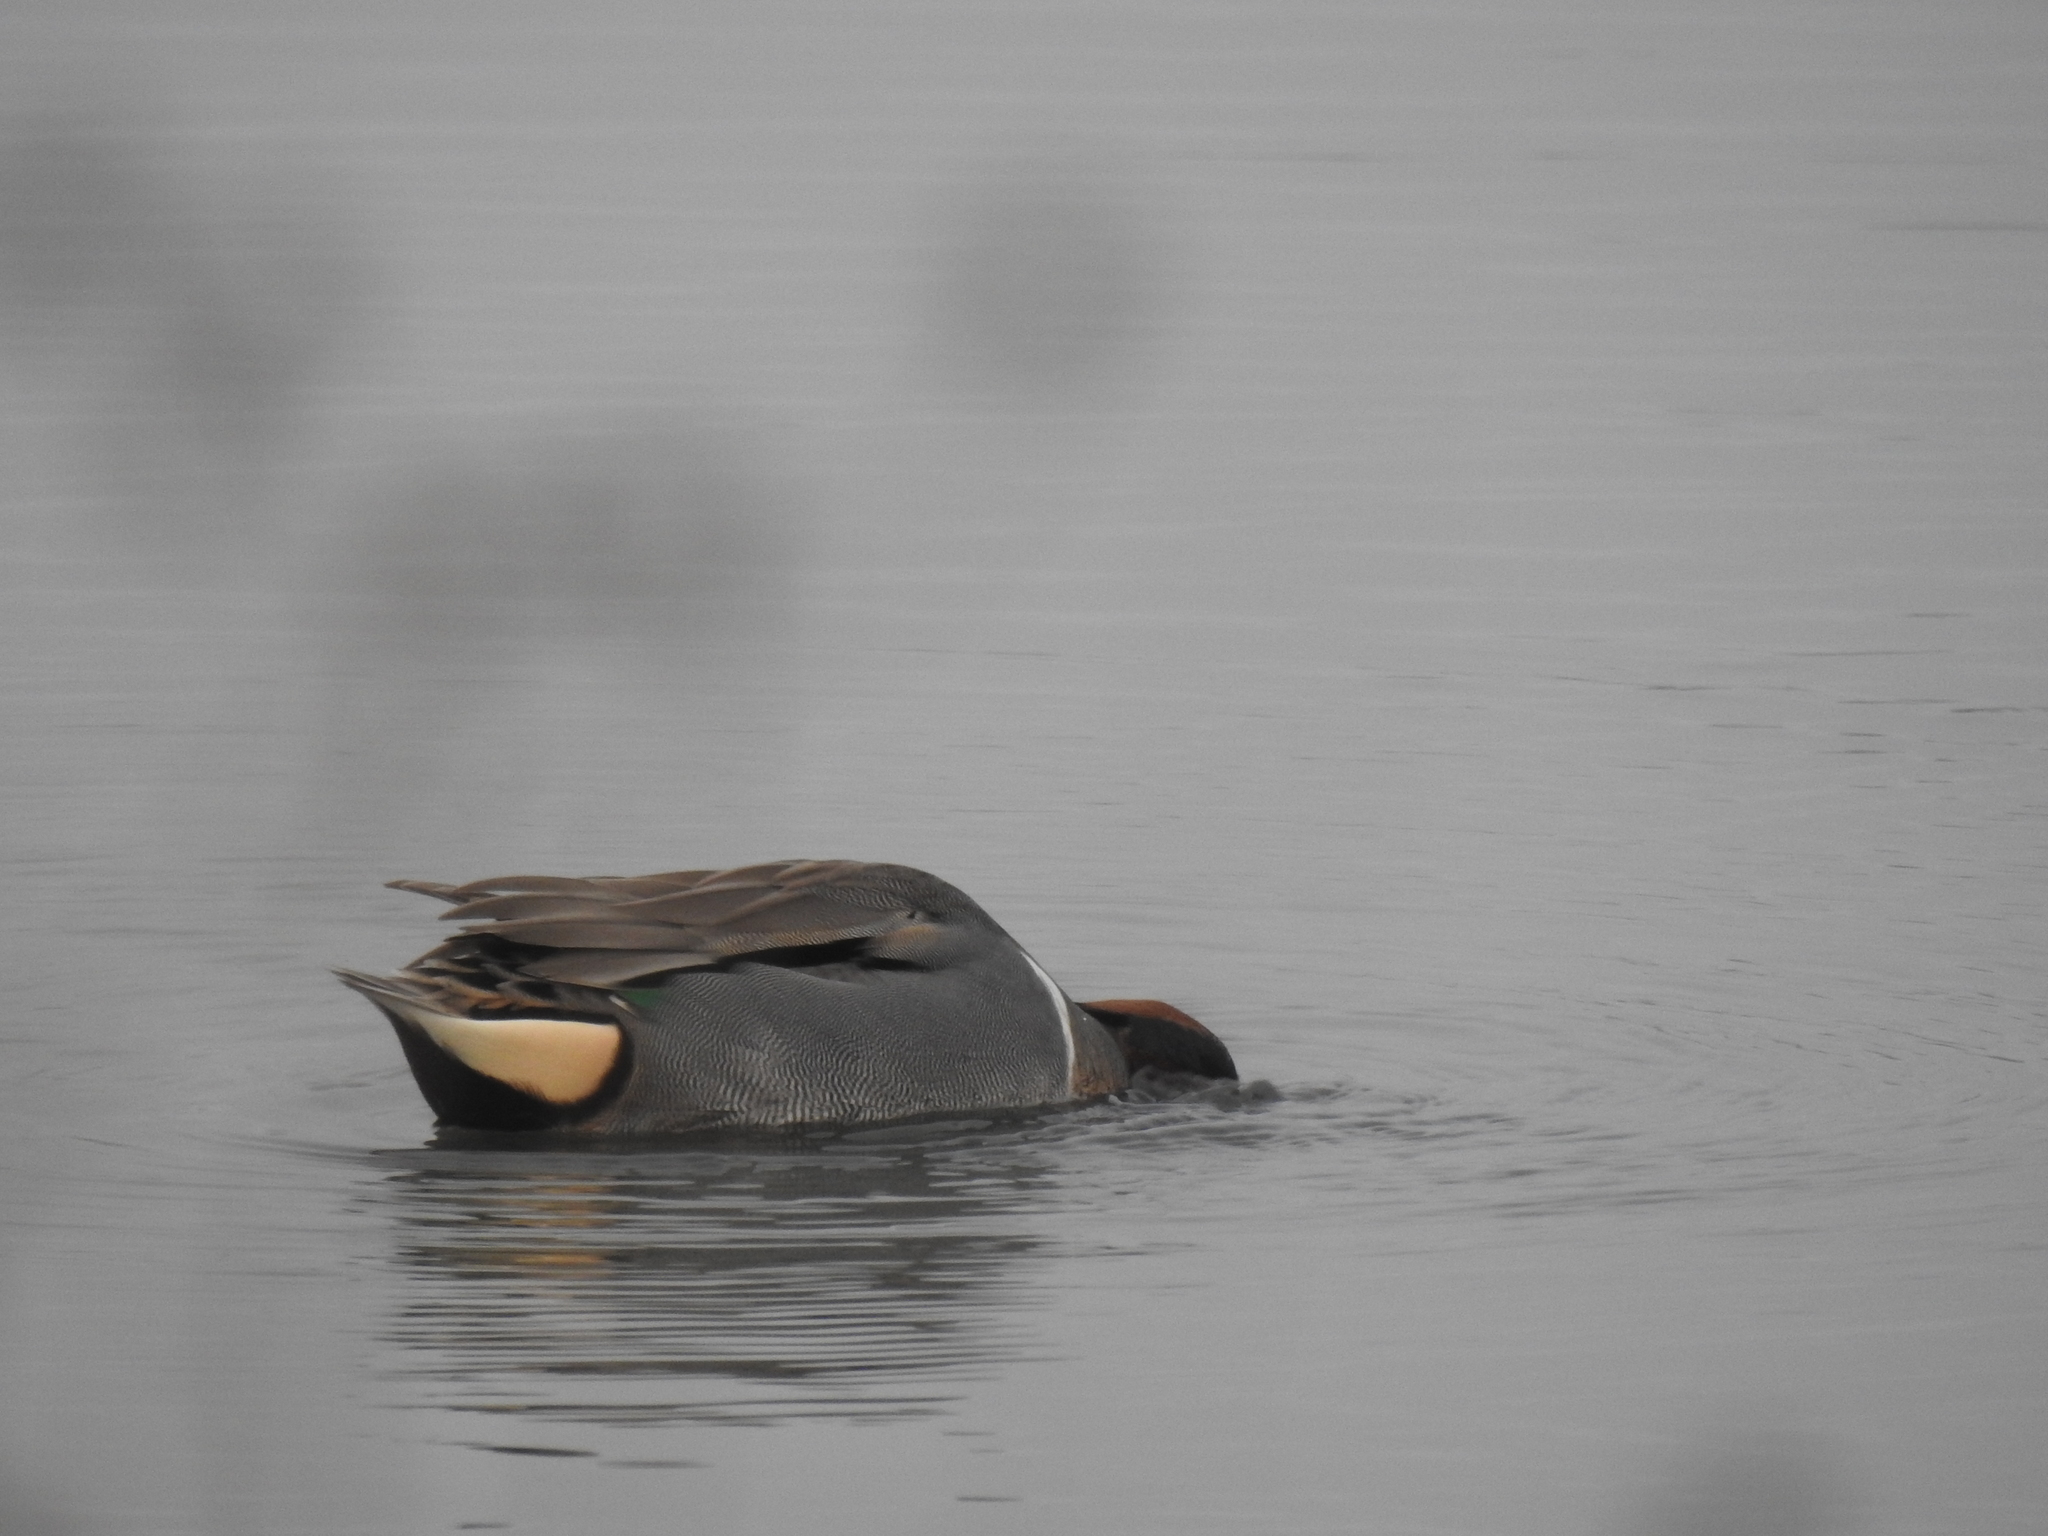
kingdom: Animalia
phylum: Chordata
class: Aves
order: Anseriformes
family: Anatidae
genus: Anas
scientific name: Anas crecca
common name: Eurasian teal
